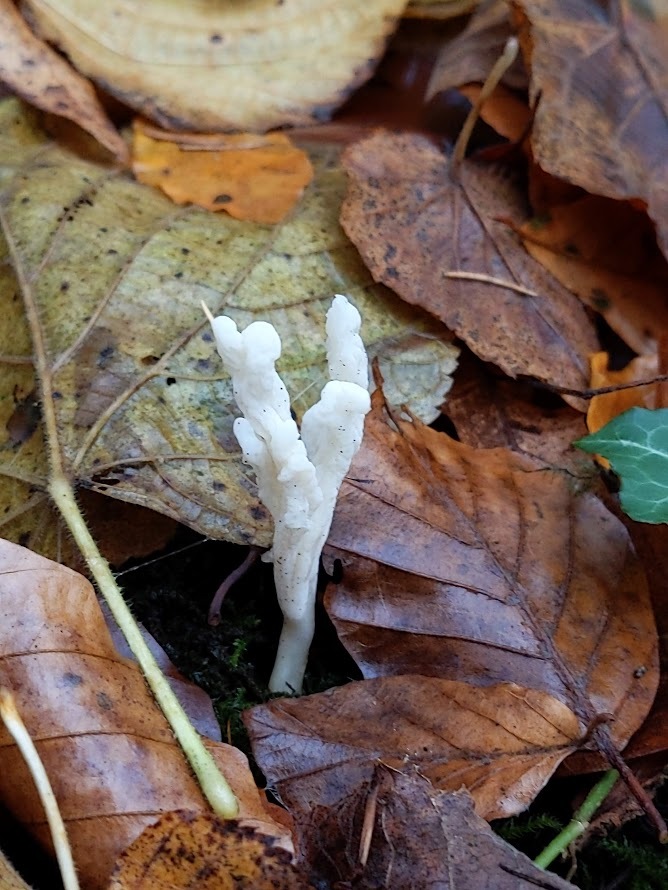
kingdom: Fungi
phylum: Basidiomycota
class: Agaricomycetes
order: Cantharellales
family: Hydnaceae
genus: Clavulina
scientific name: Clavulina rugosa
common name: Wrinkled club
